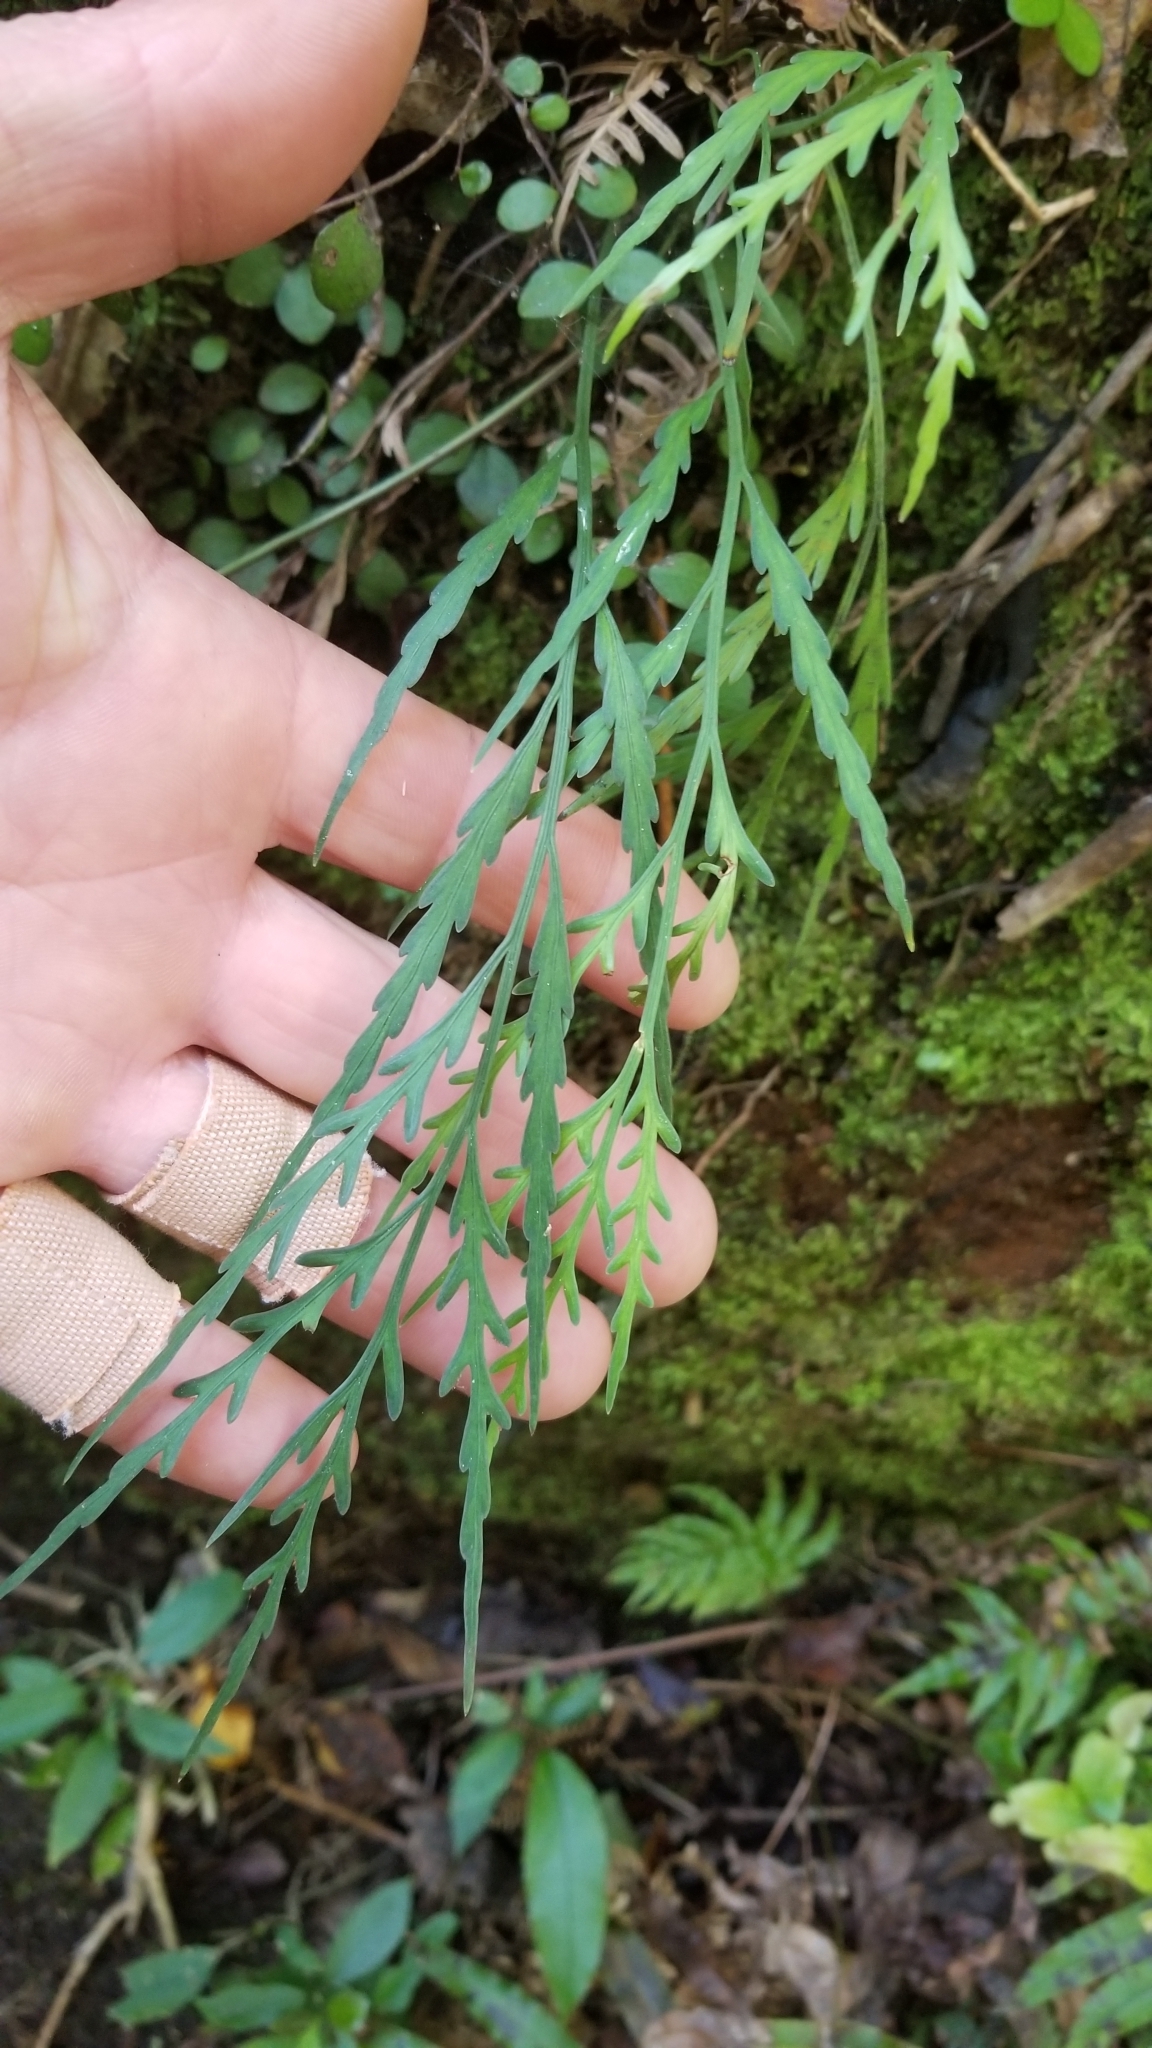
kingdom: Plantae
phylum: Tracheophyta
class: Polypodiopsida
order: Polypodiales
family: Aspleniaceae
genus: Asplenium
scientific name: Asplenium flaccidum
